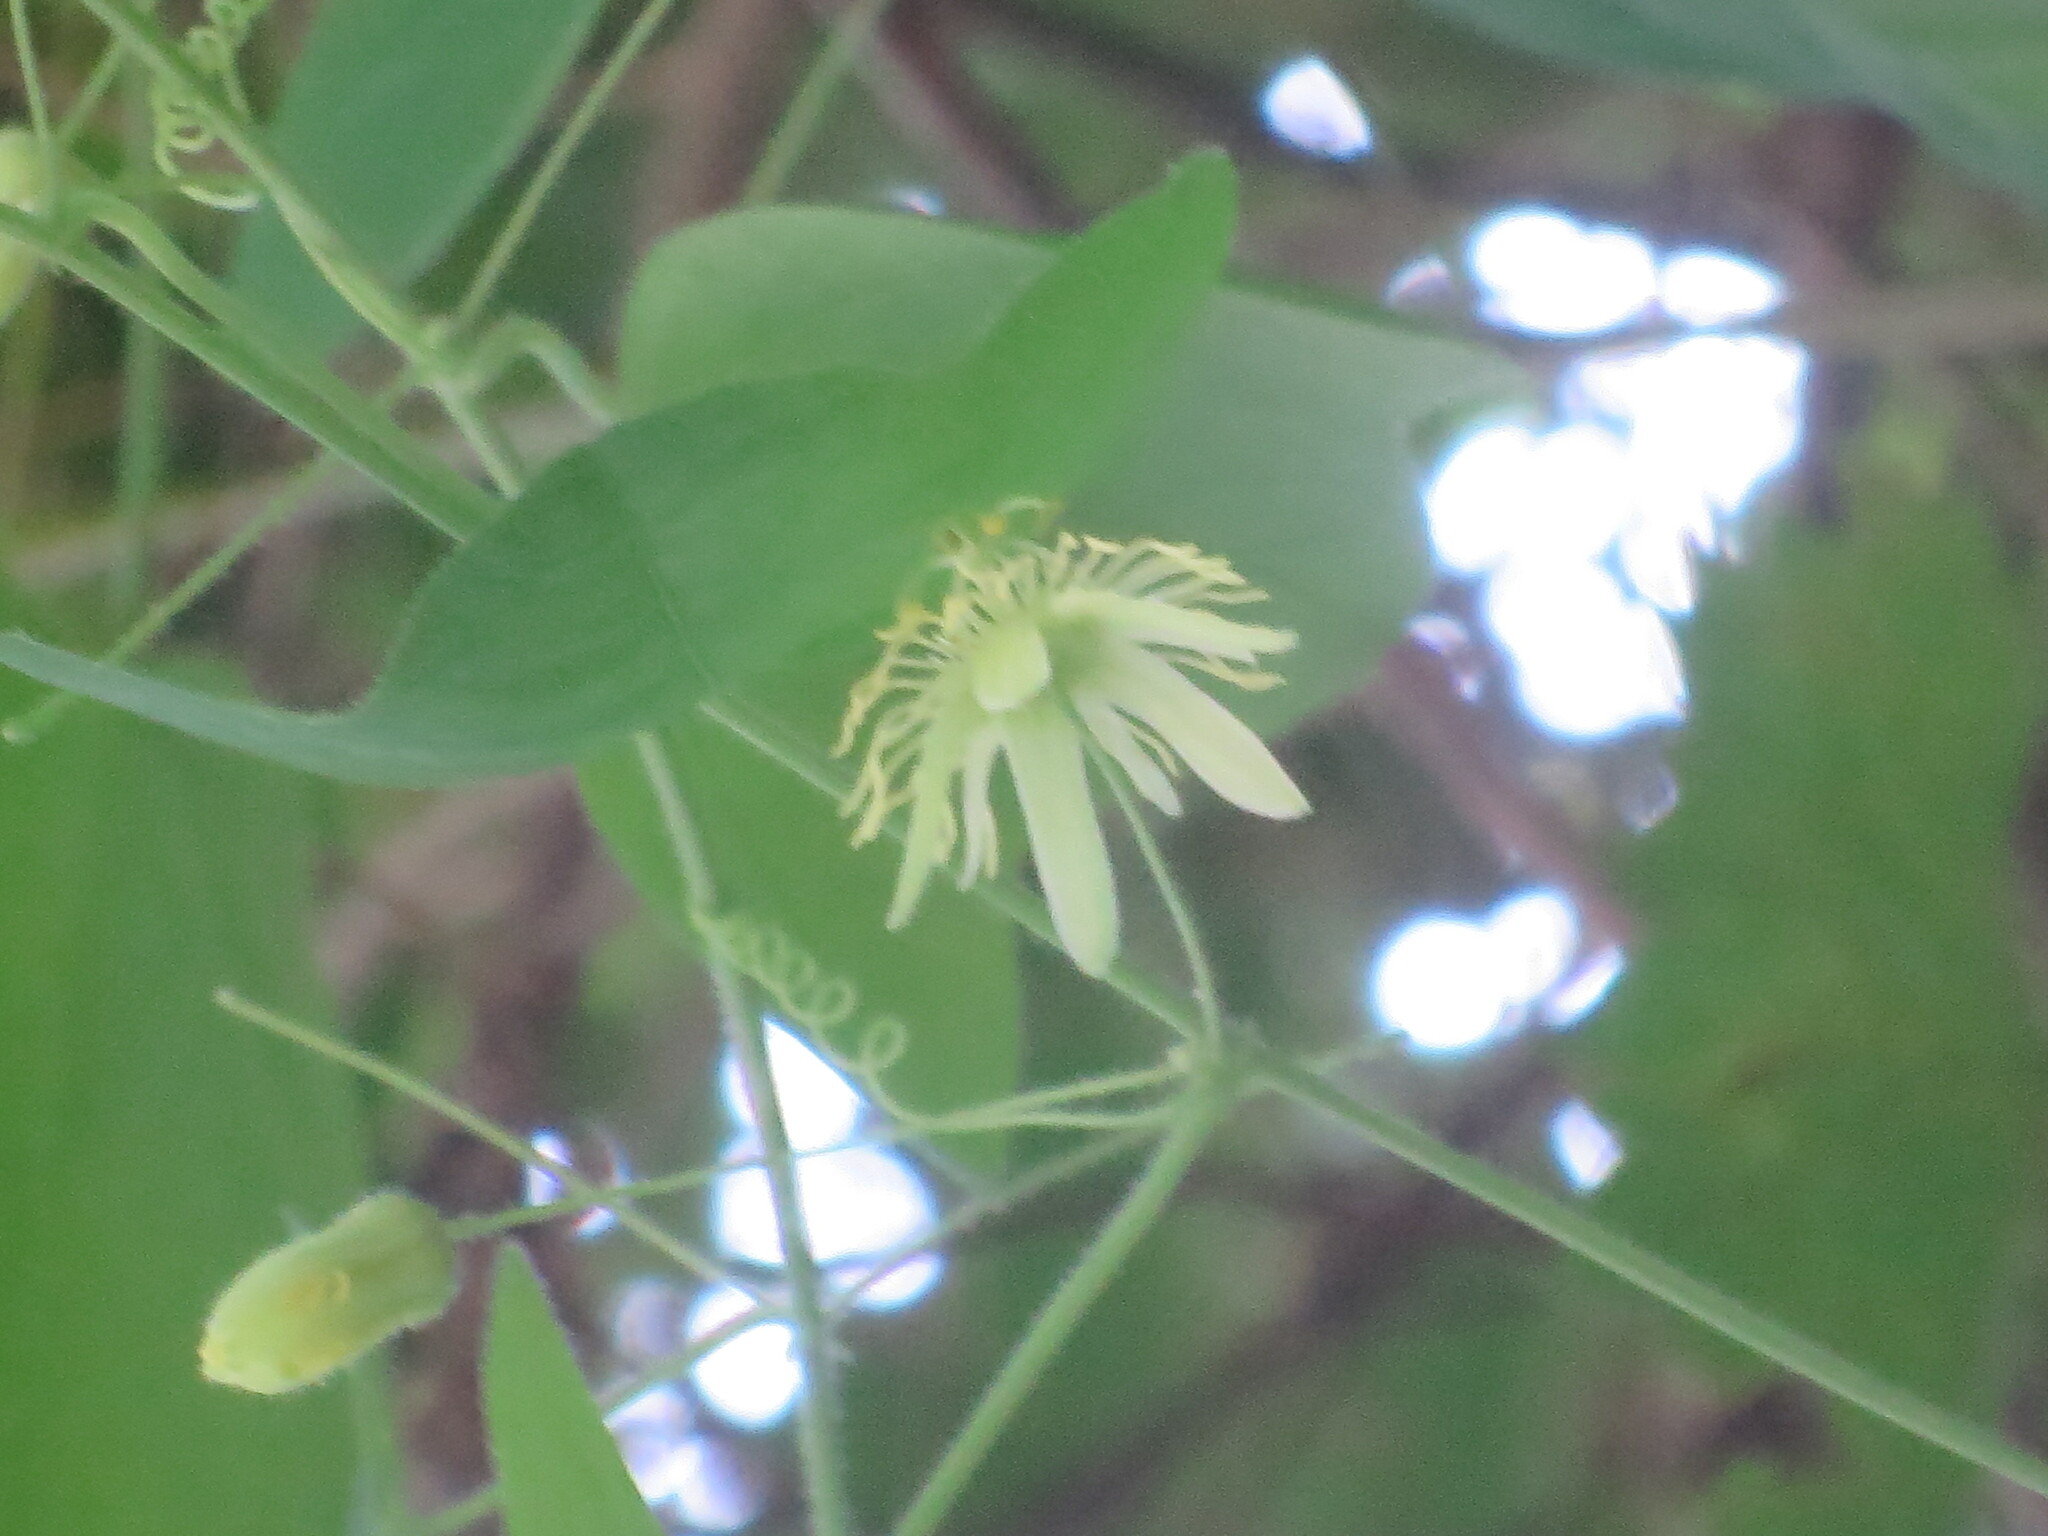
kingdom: Plantae
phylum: Tracheophyta
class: Magnoliopsida
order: Malpighiales
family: Passifloraceae
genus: Passiflora
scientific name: Passiflora lutea
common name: Yellow passionflower
